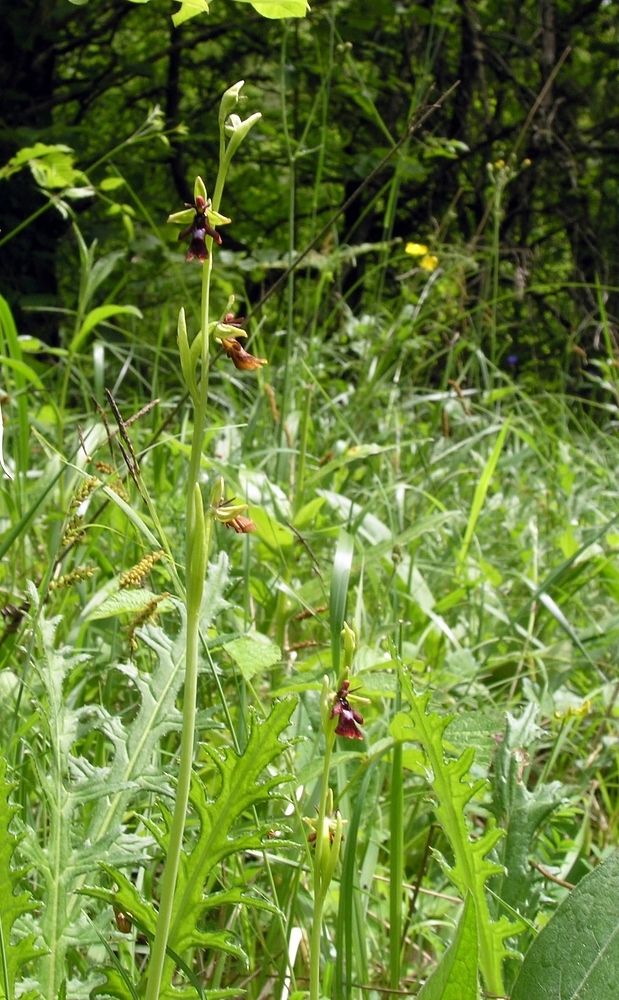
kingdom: Plantae
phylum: Tracheophyta
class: Liliopsida
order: Asparagales
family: Orchidaceae
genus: Ophrys
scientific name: Ophrys insectifera
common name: Fly orchid
